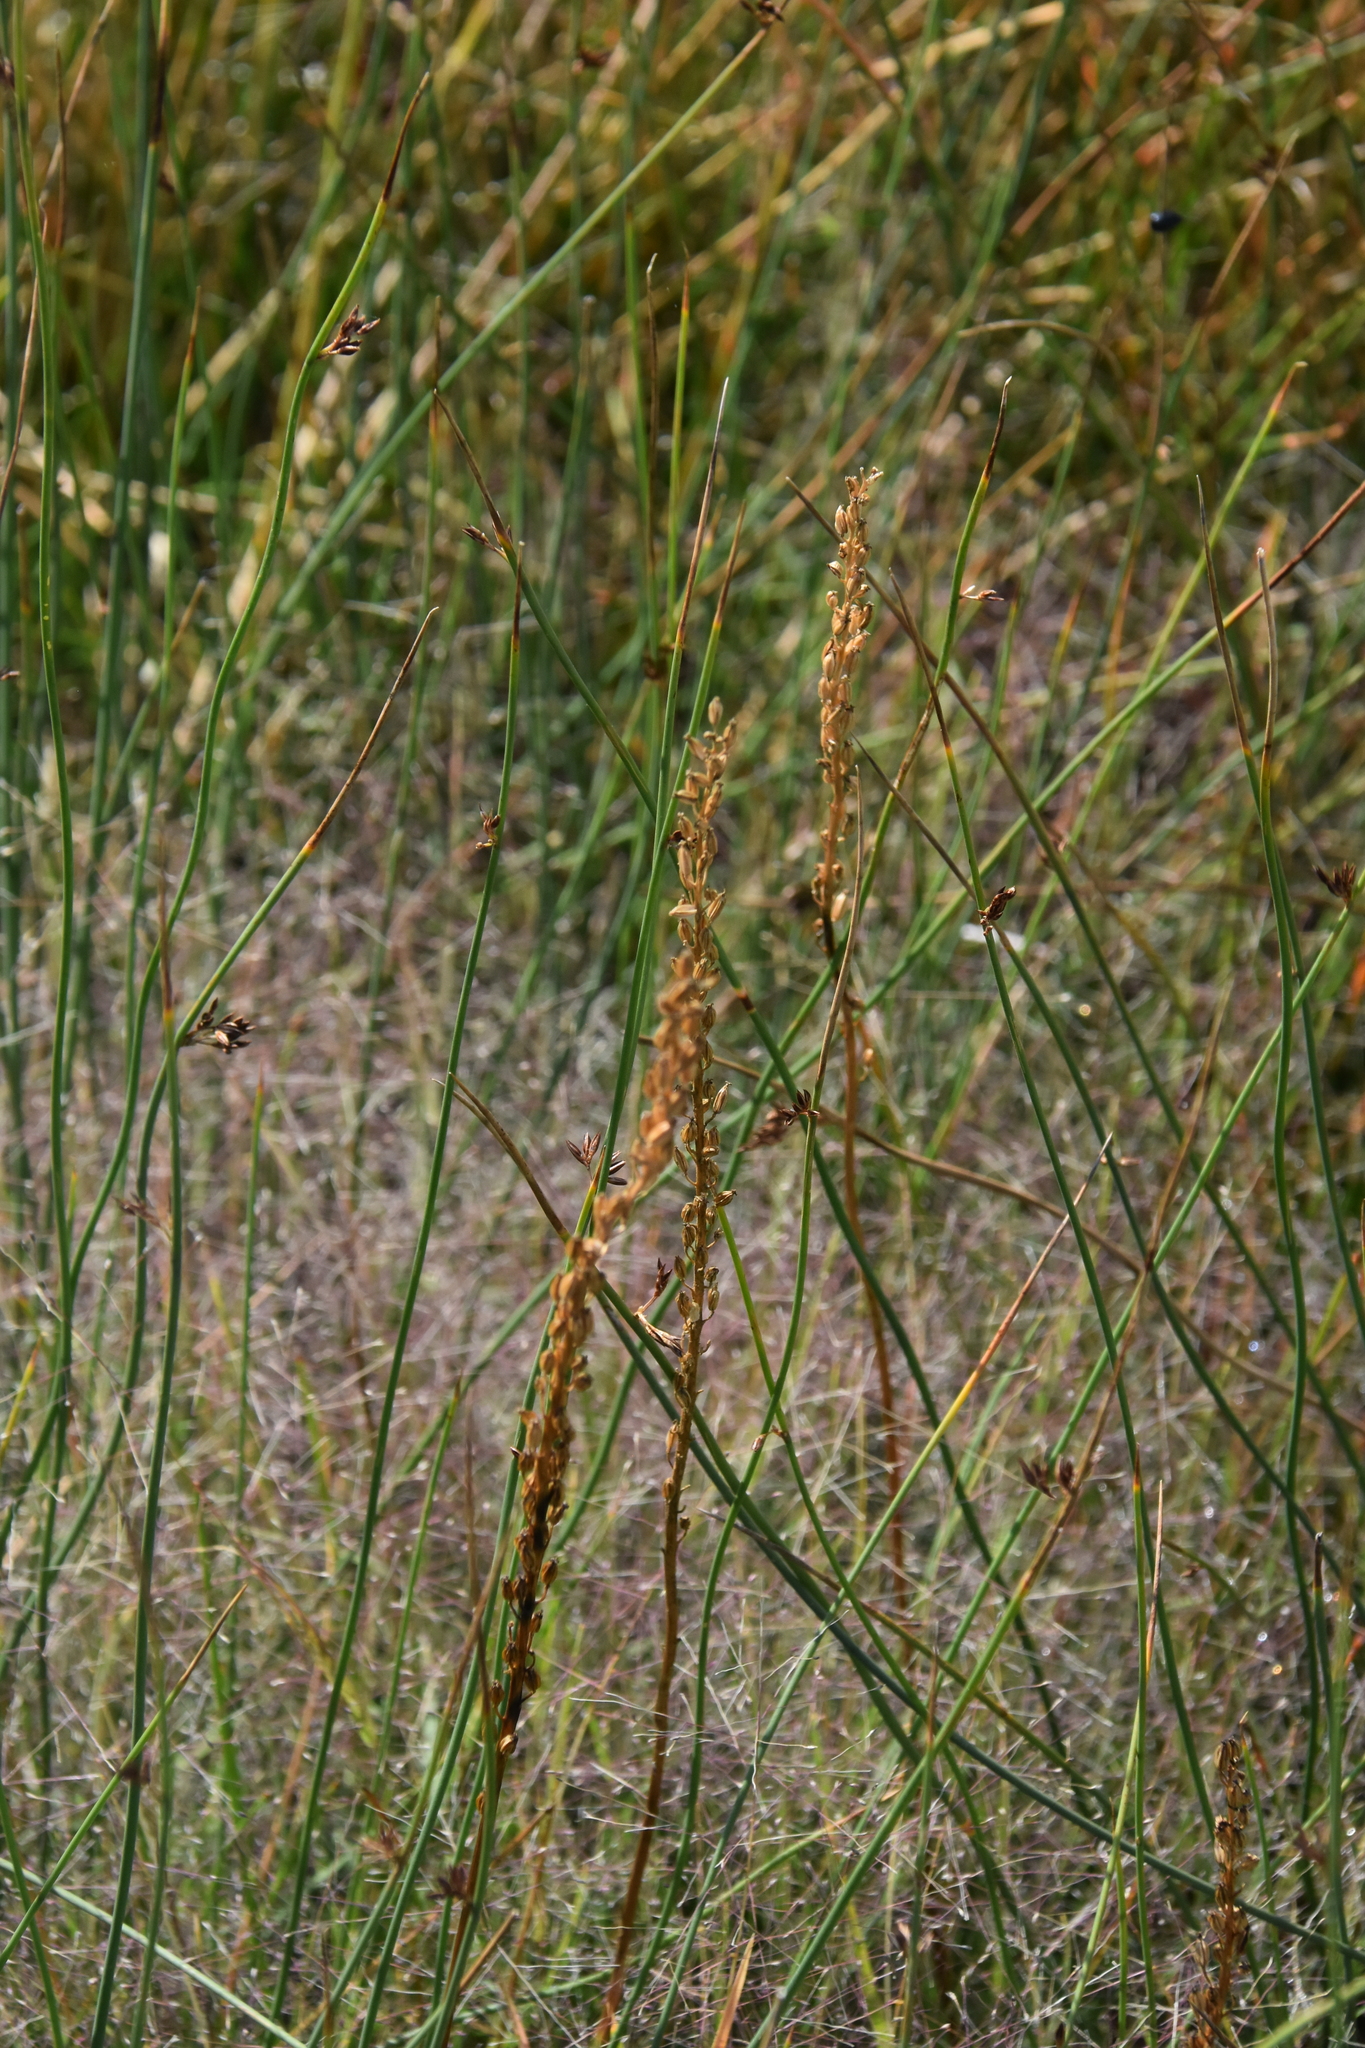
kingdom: Plantae
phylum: Tracheophyta
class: Liliopsida
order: Alismatales
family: Juncaginaceae
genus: Triglochin
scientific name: Triglochin maritima
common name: Sea arrowgrass
